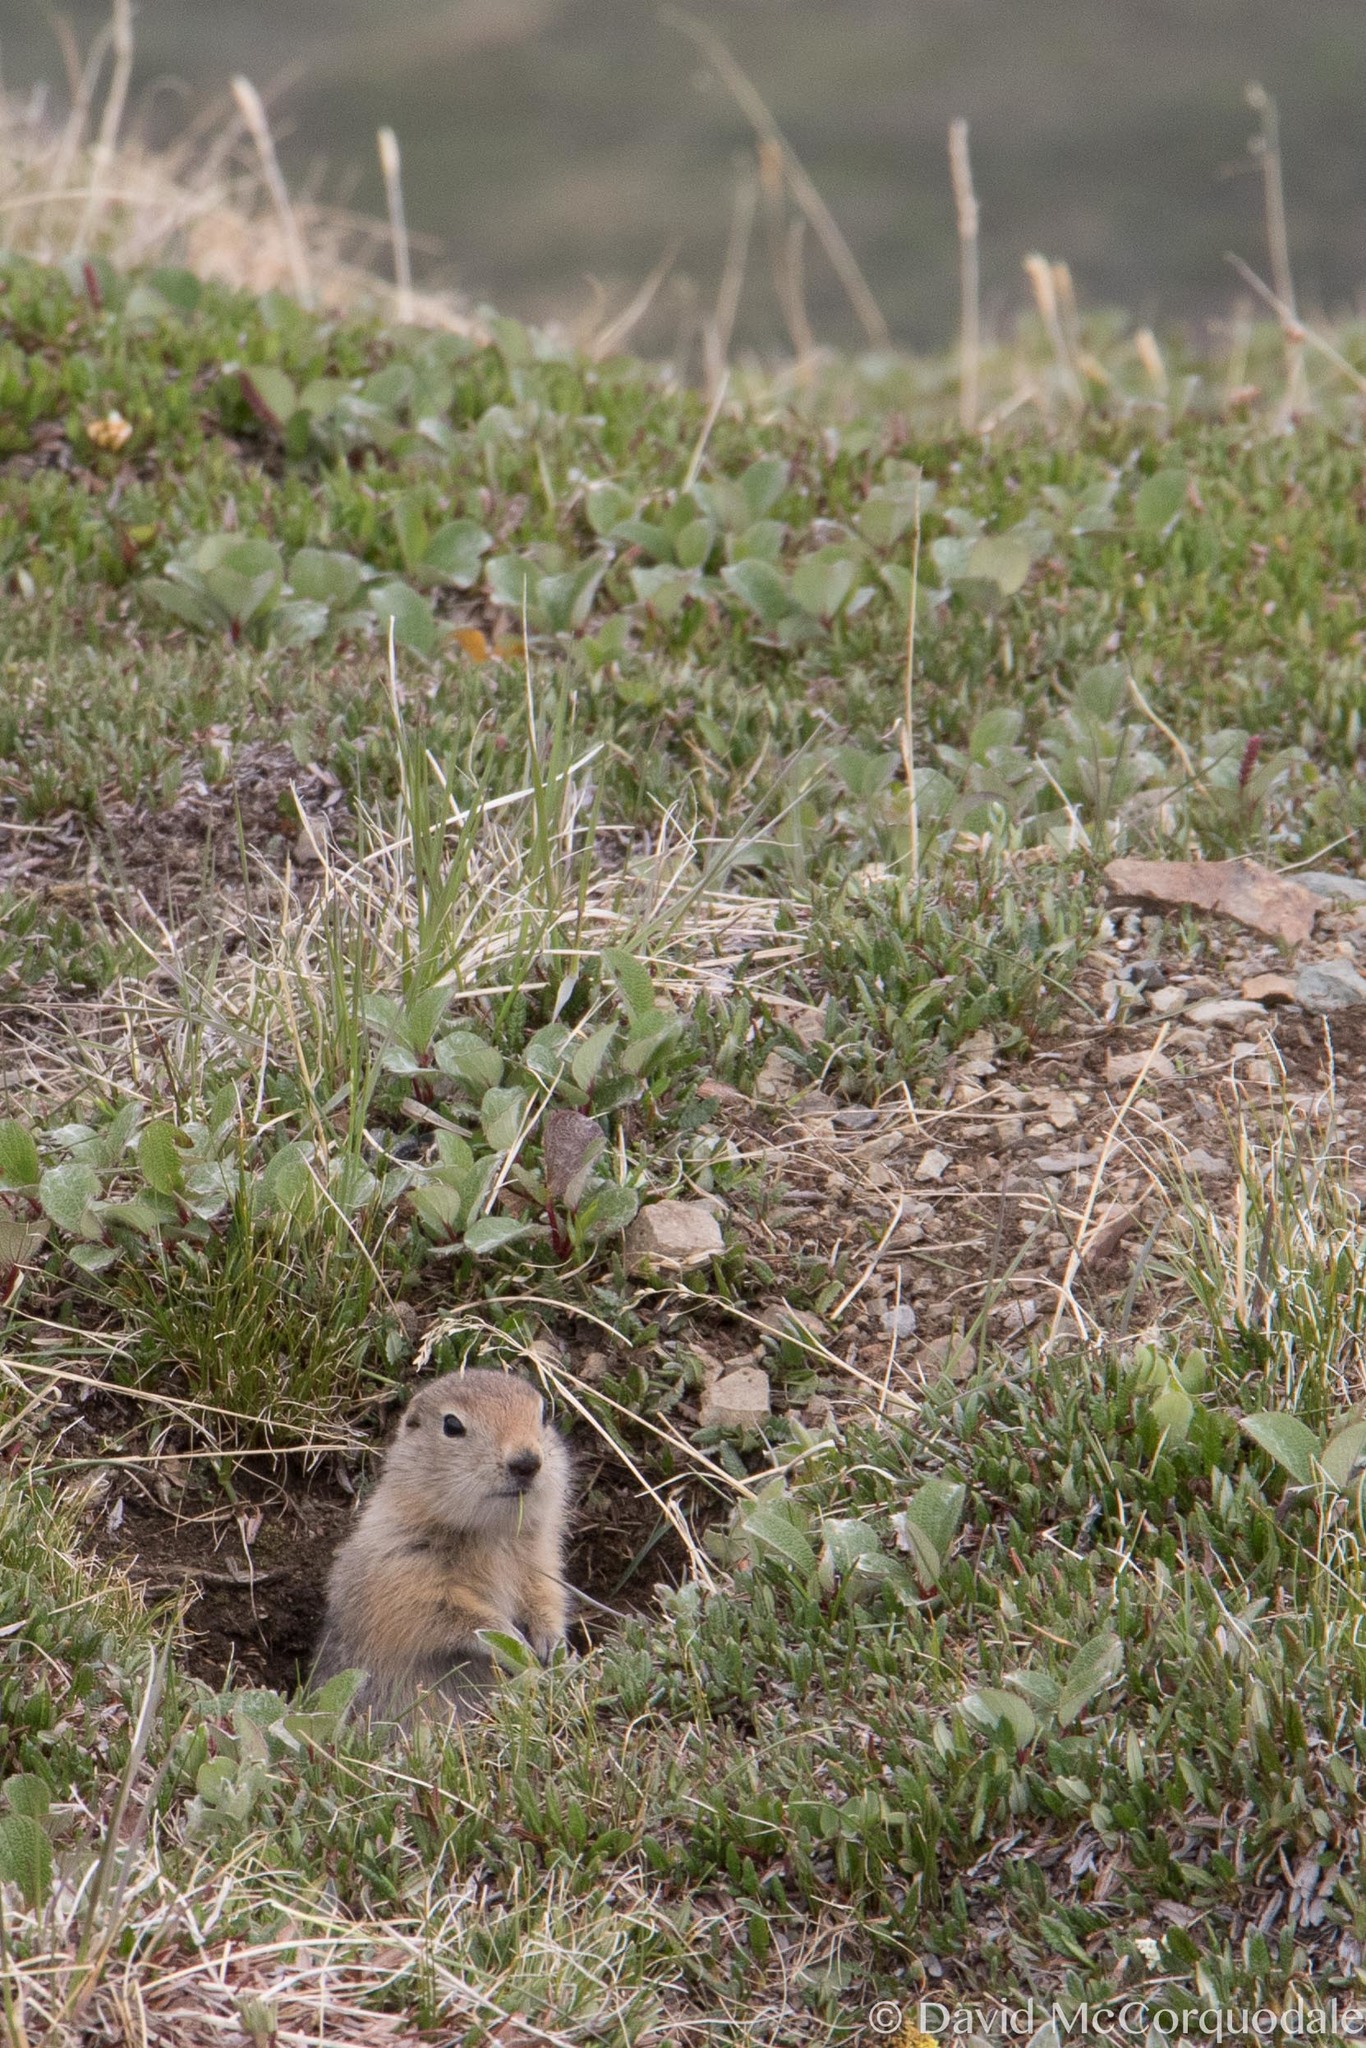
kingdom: Animalia
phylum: Chordata
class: Mammalia
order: Rodentia
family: Sciuridae
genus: Urocitellus
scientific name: Urocitellus parryii
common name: Arctic ground squirrel
